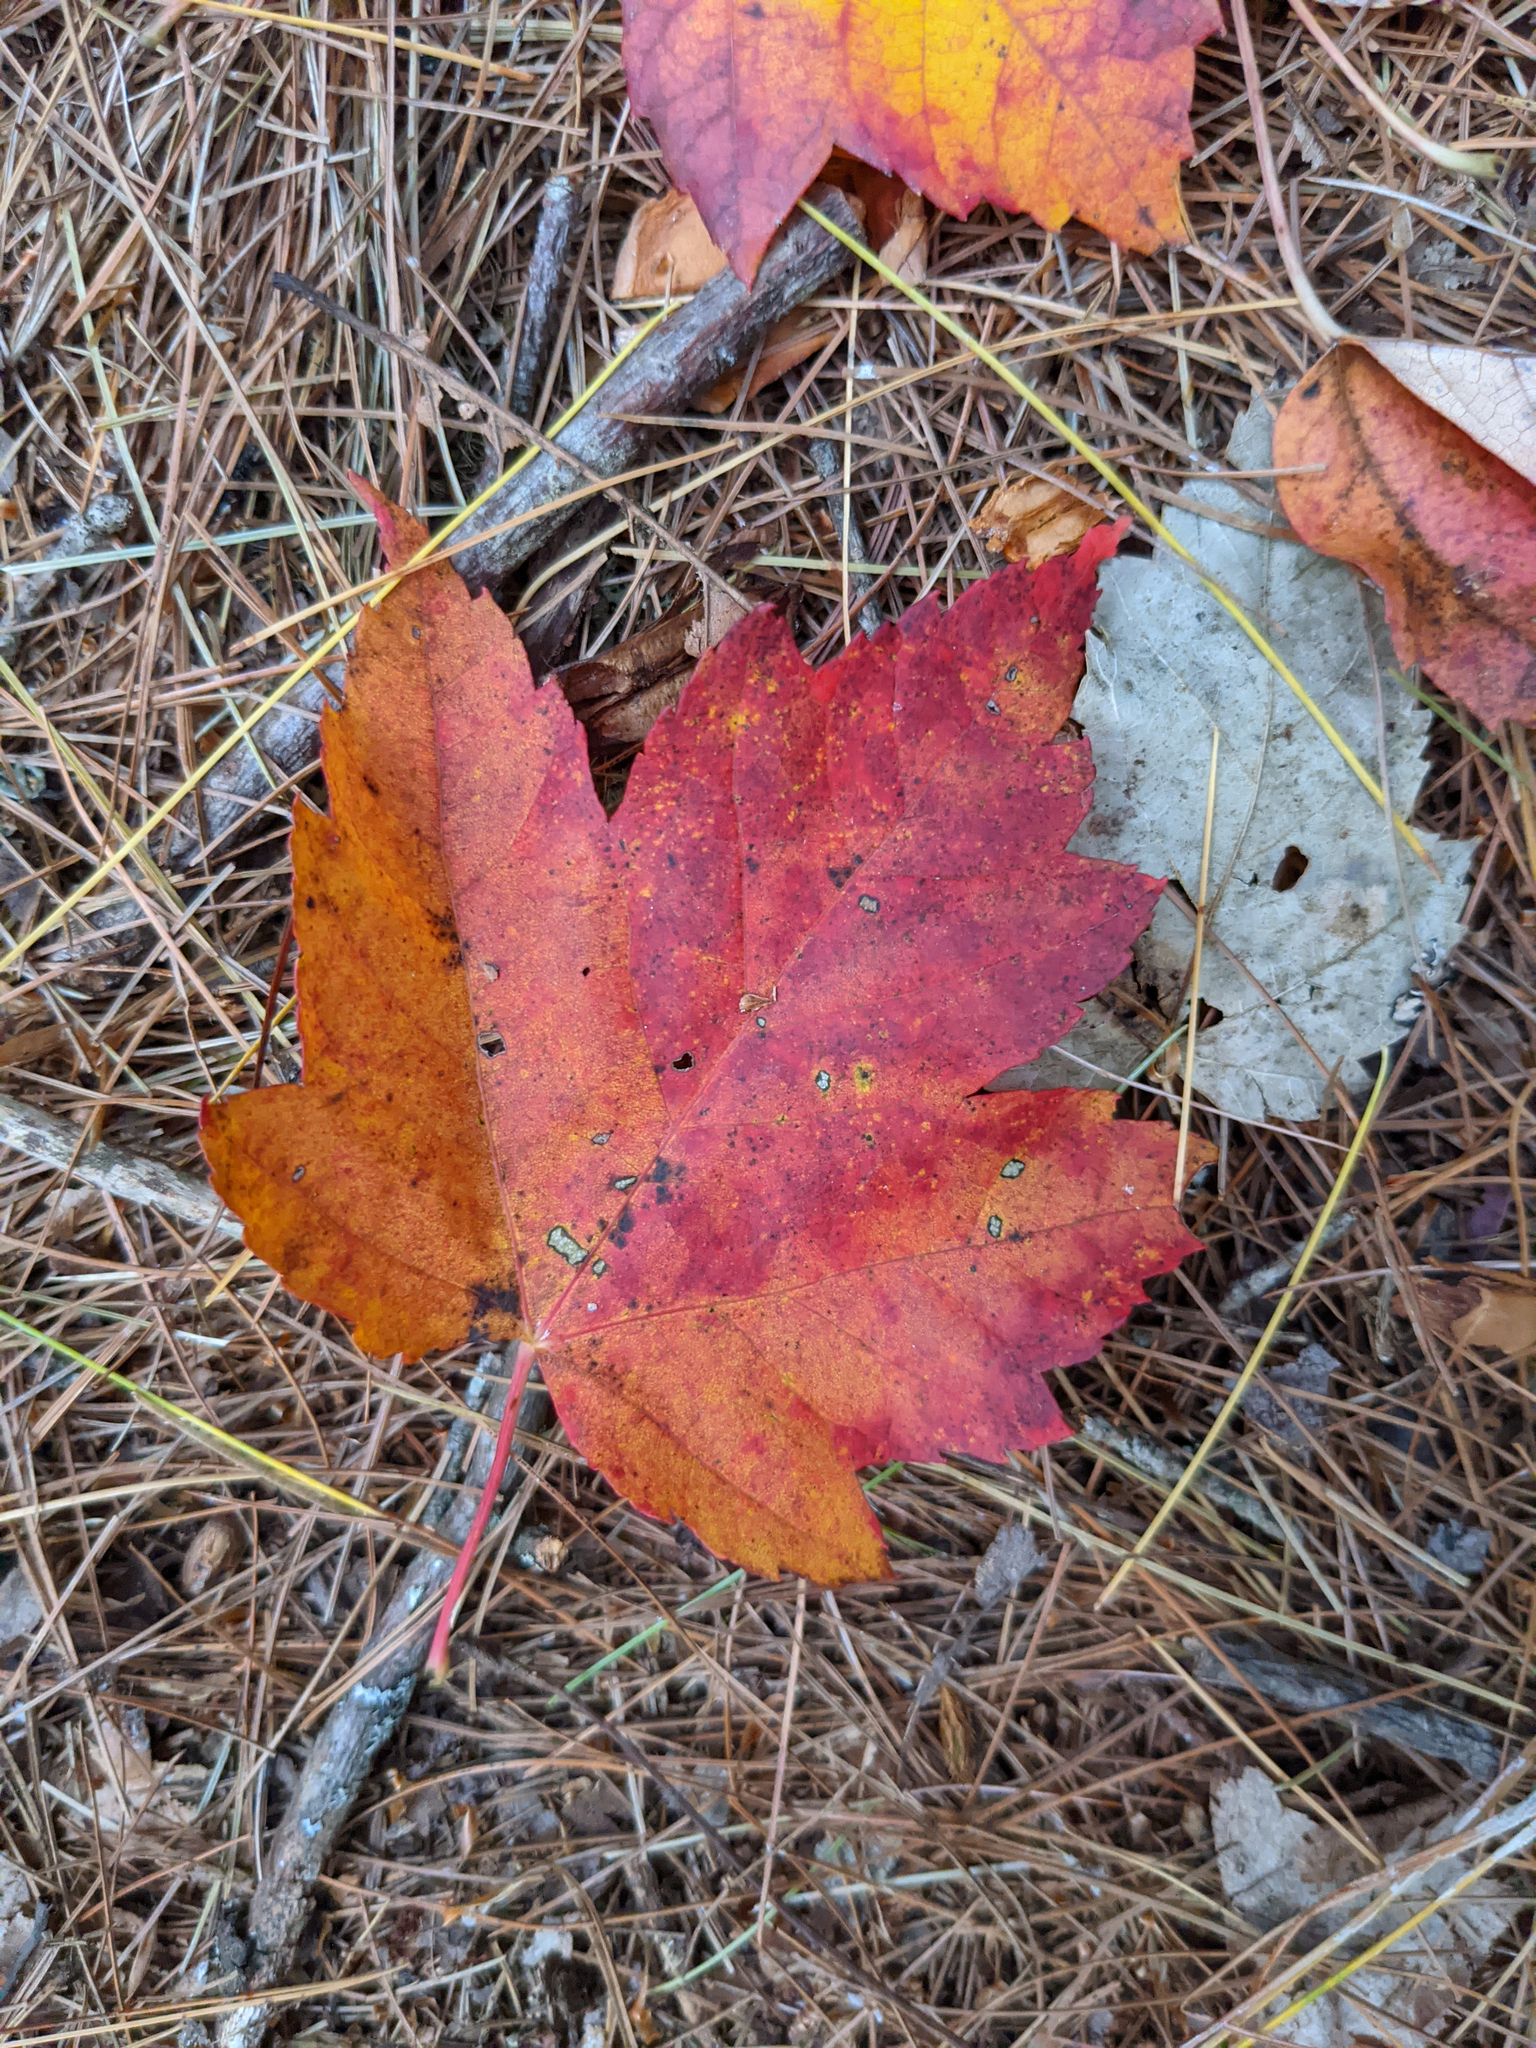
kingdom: Plantae
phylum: Tracheophyta
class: Magnoliopsida
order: Sapindales
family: Sapindaceae
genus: Acer
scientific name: Acer rubrum
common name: Red maple
